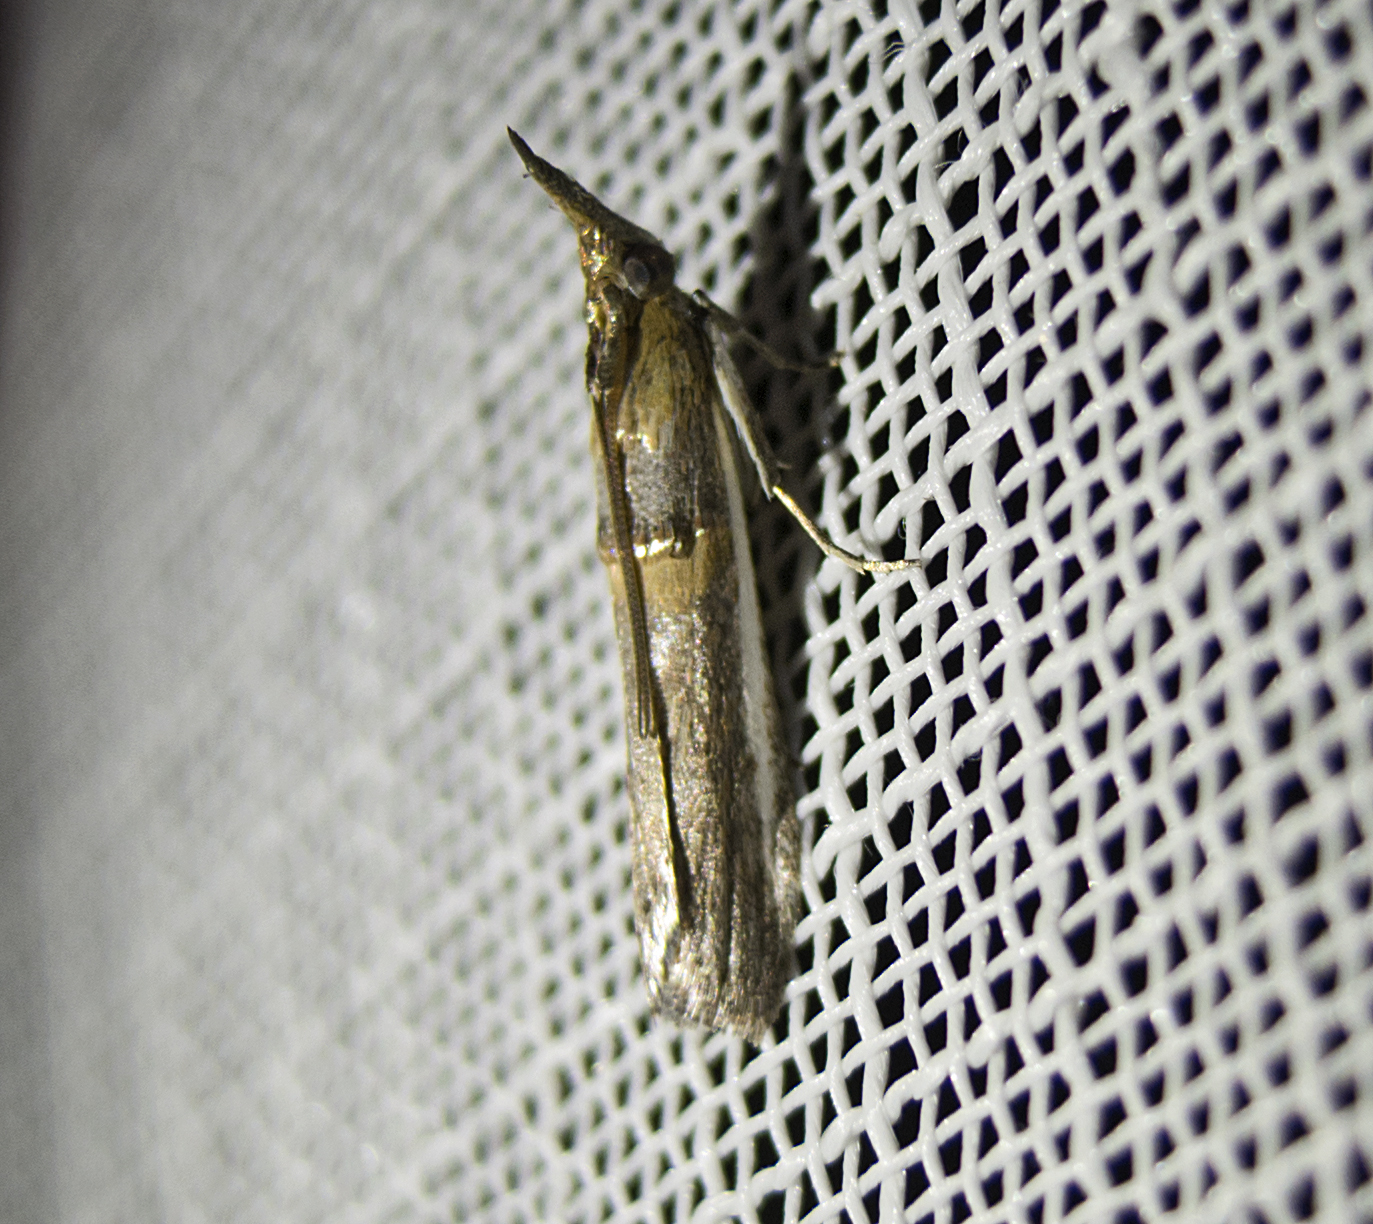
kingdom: Animalia
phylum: Arthropoda
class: Insecta
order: Lepidoptera
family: Pyralidae
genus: Etiella
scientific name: Etiella zinckenella
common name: Gold-banded etiella moth
